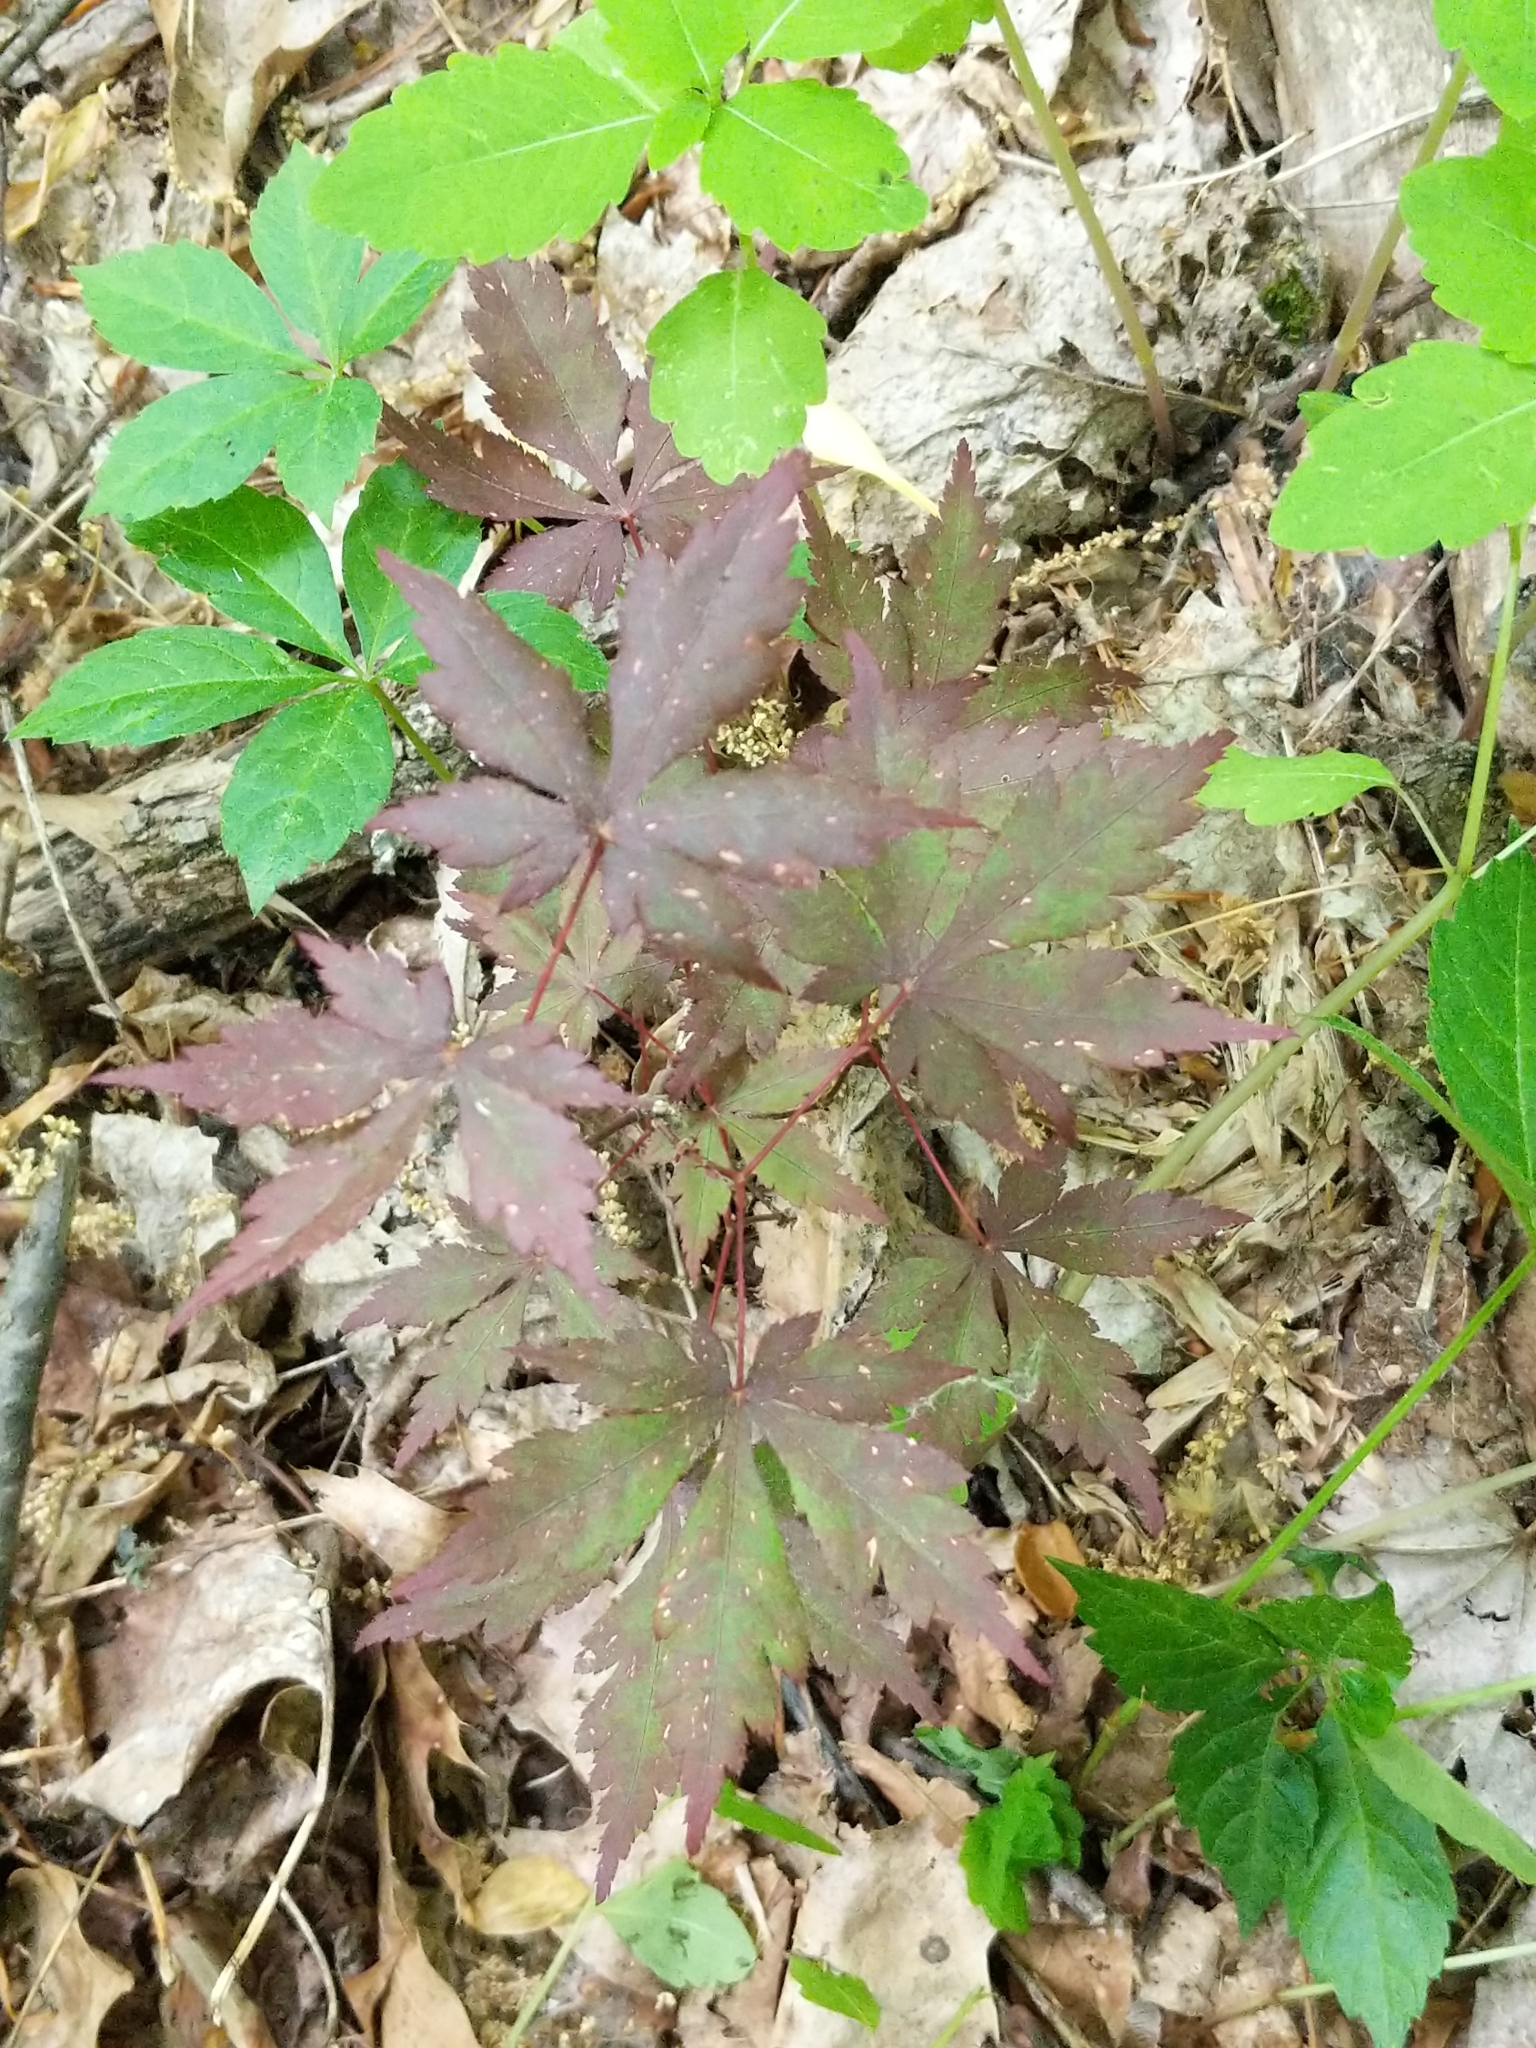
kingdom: Plantae
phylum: Tracheophyta
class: Magnoliopsida
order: Sapindales
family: Sapindaceae
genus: Acer
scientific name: Acer palmatum
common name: Japanese maple
